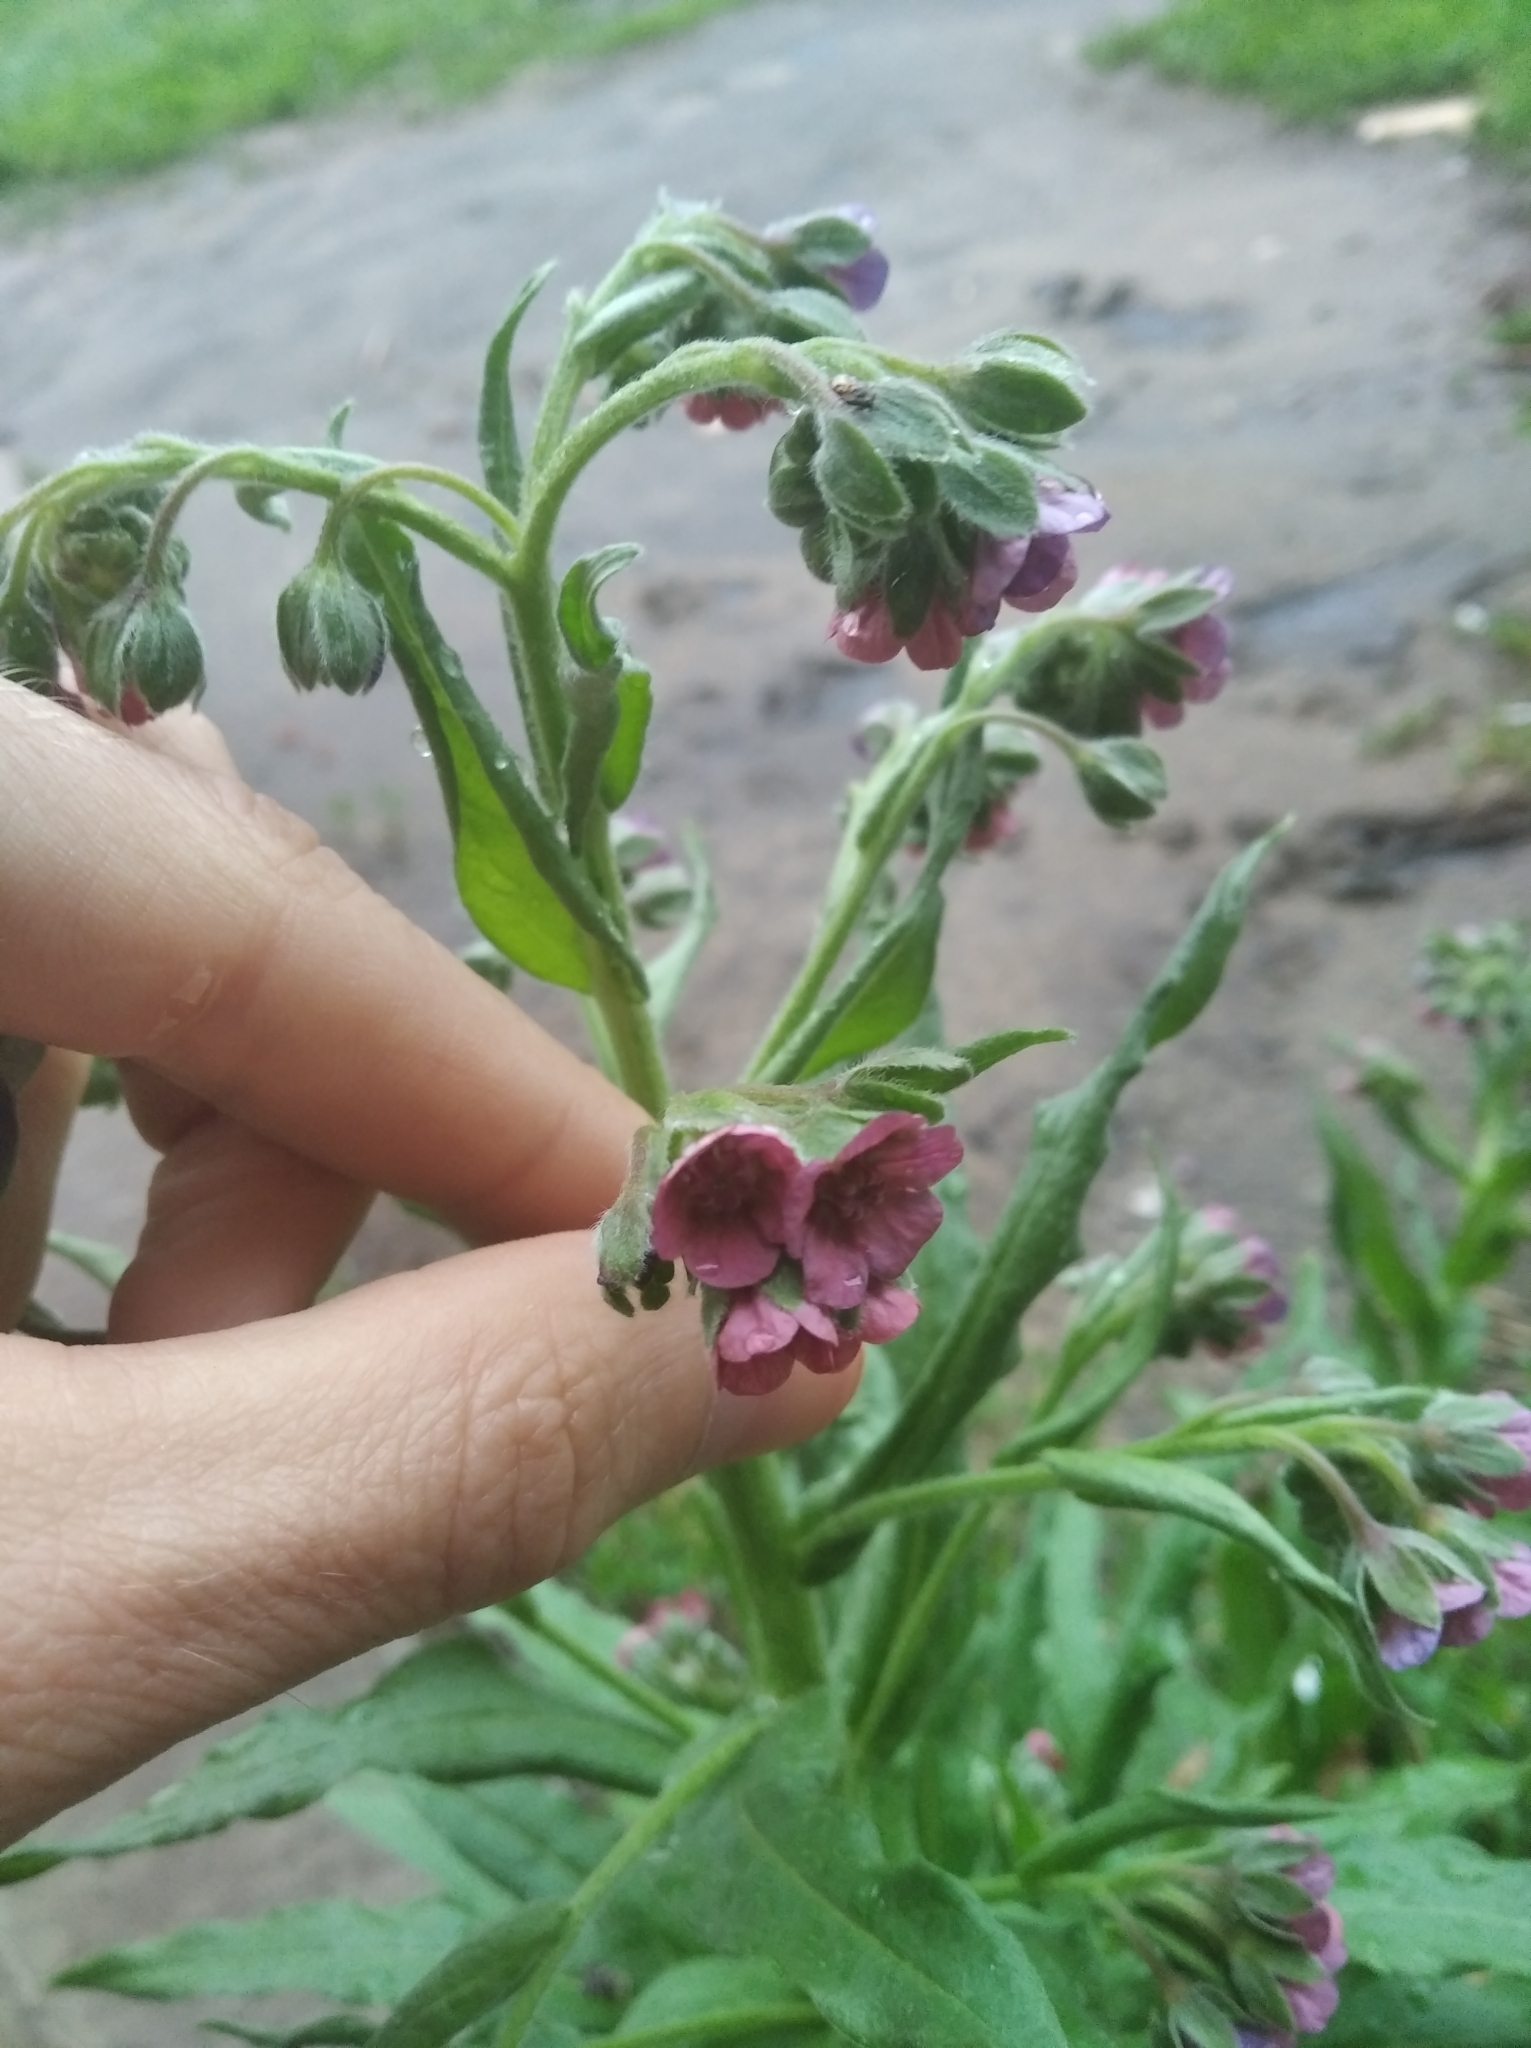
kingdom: Plantae
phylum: Tracheophyta
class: Magnoliopsida
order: Boraginales
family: Boraginaceae
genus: Cynoglossum
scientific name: Cynoglossum officinale
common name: Hound's-tongue
